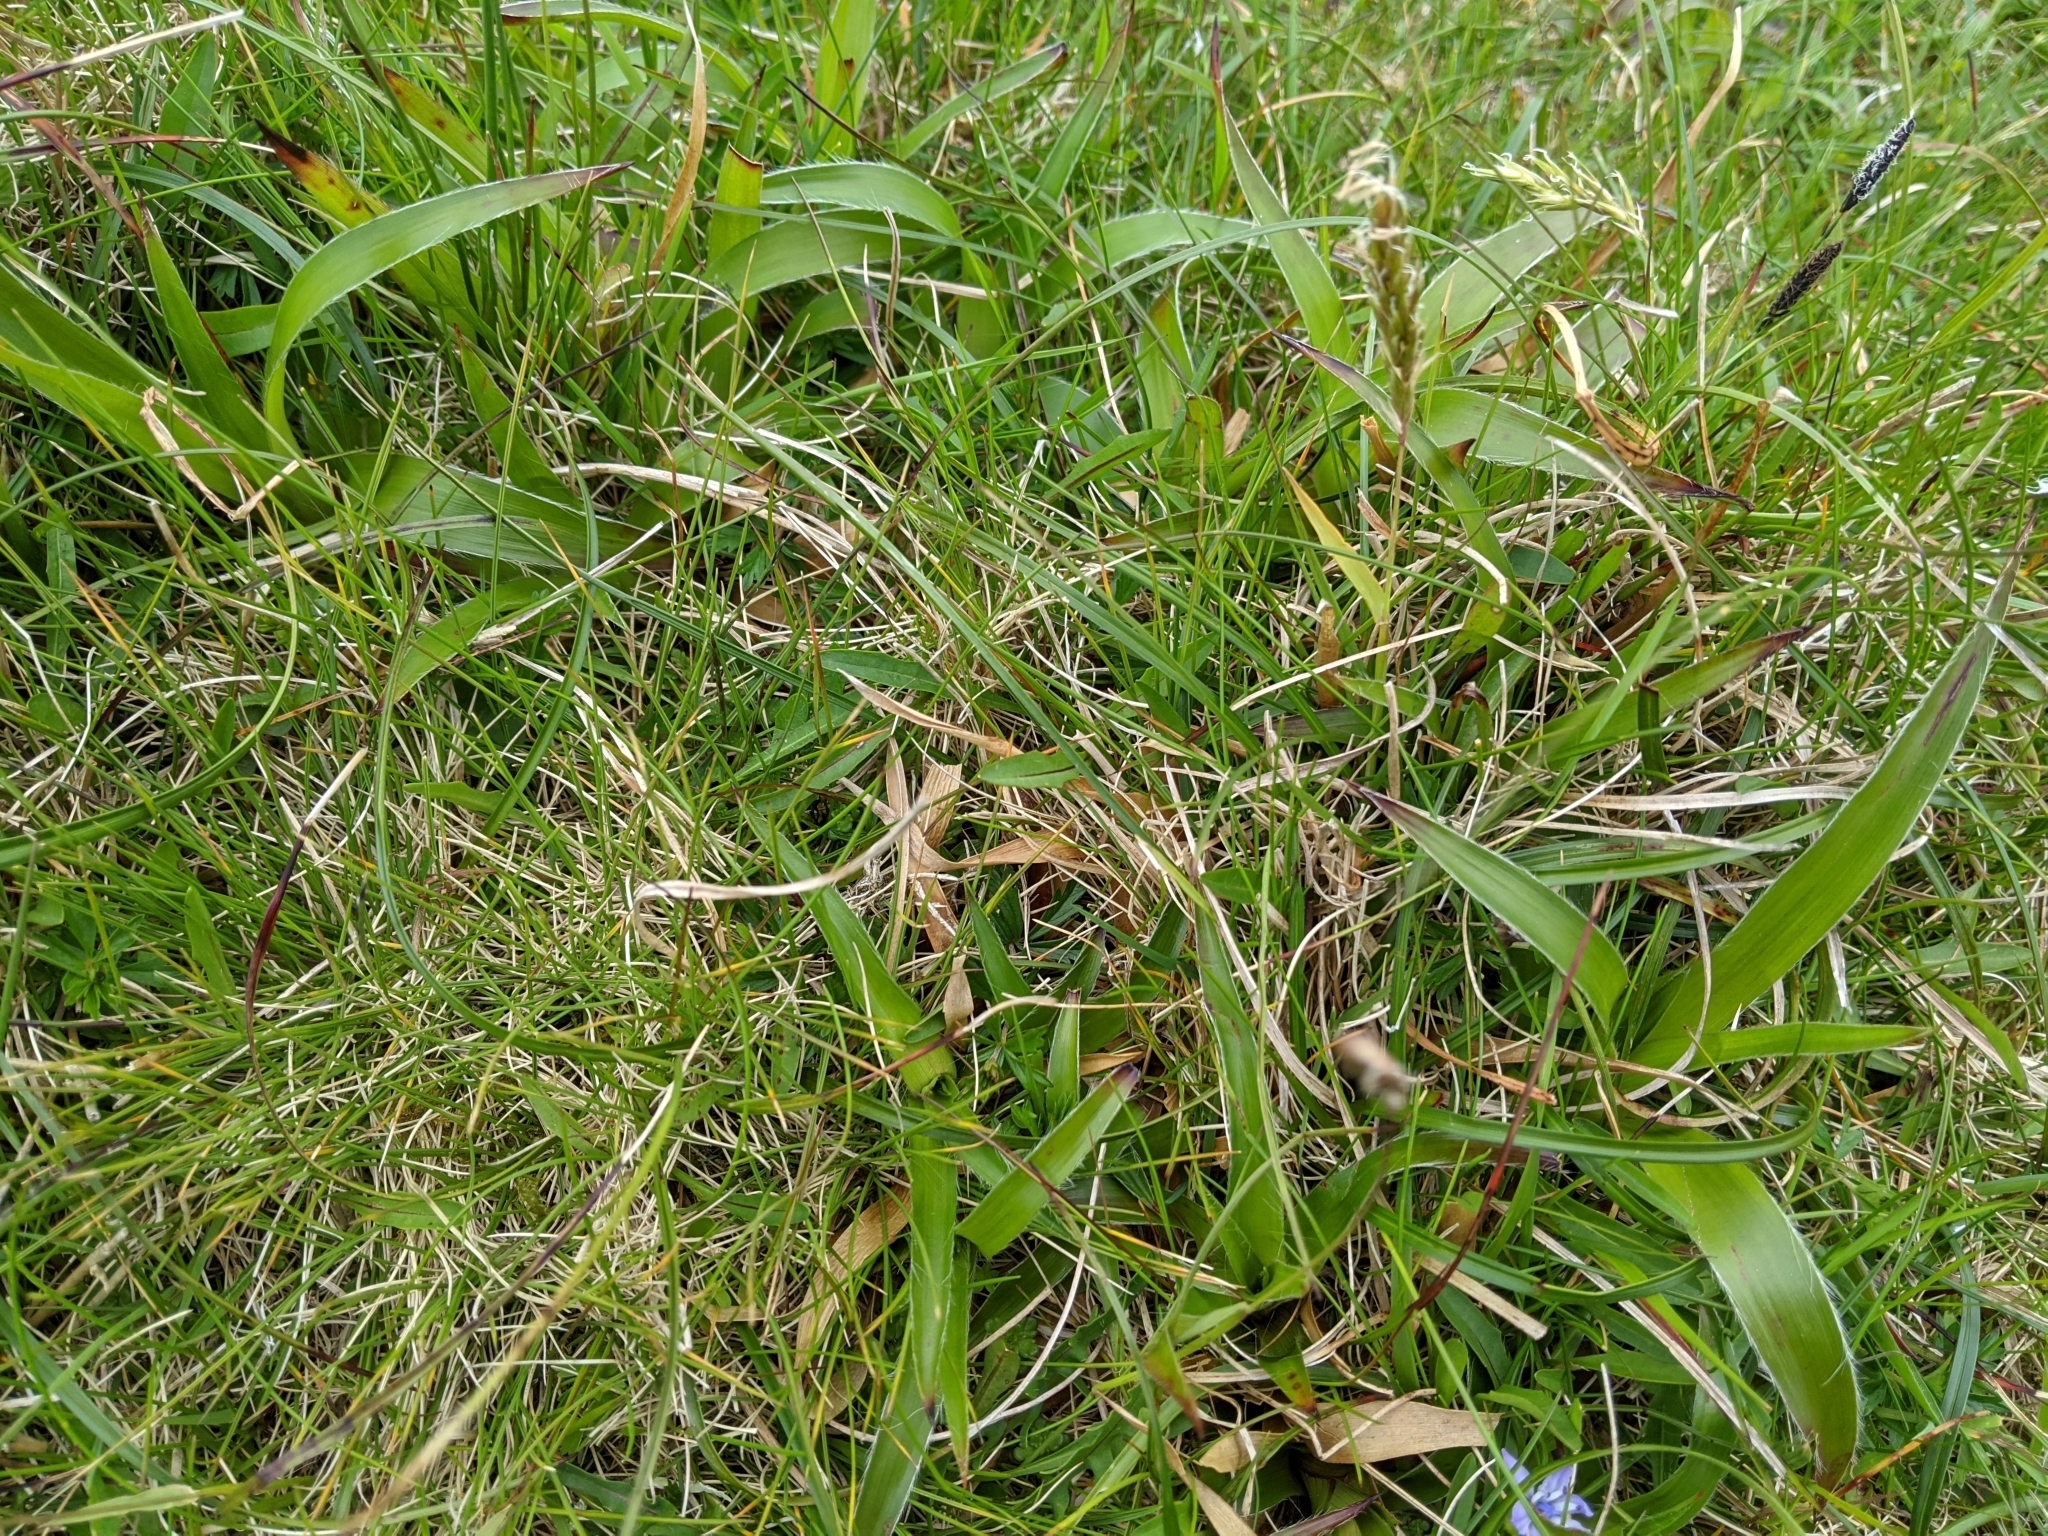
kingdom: Plantae
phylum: Tracheophyta
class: Liliopsida
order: Poales
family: Juncaceae
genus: Luzula
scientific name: Luzula sylvatica
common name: Great wood-rush
